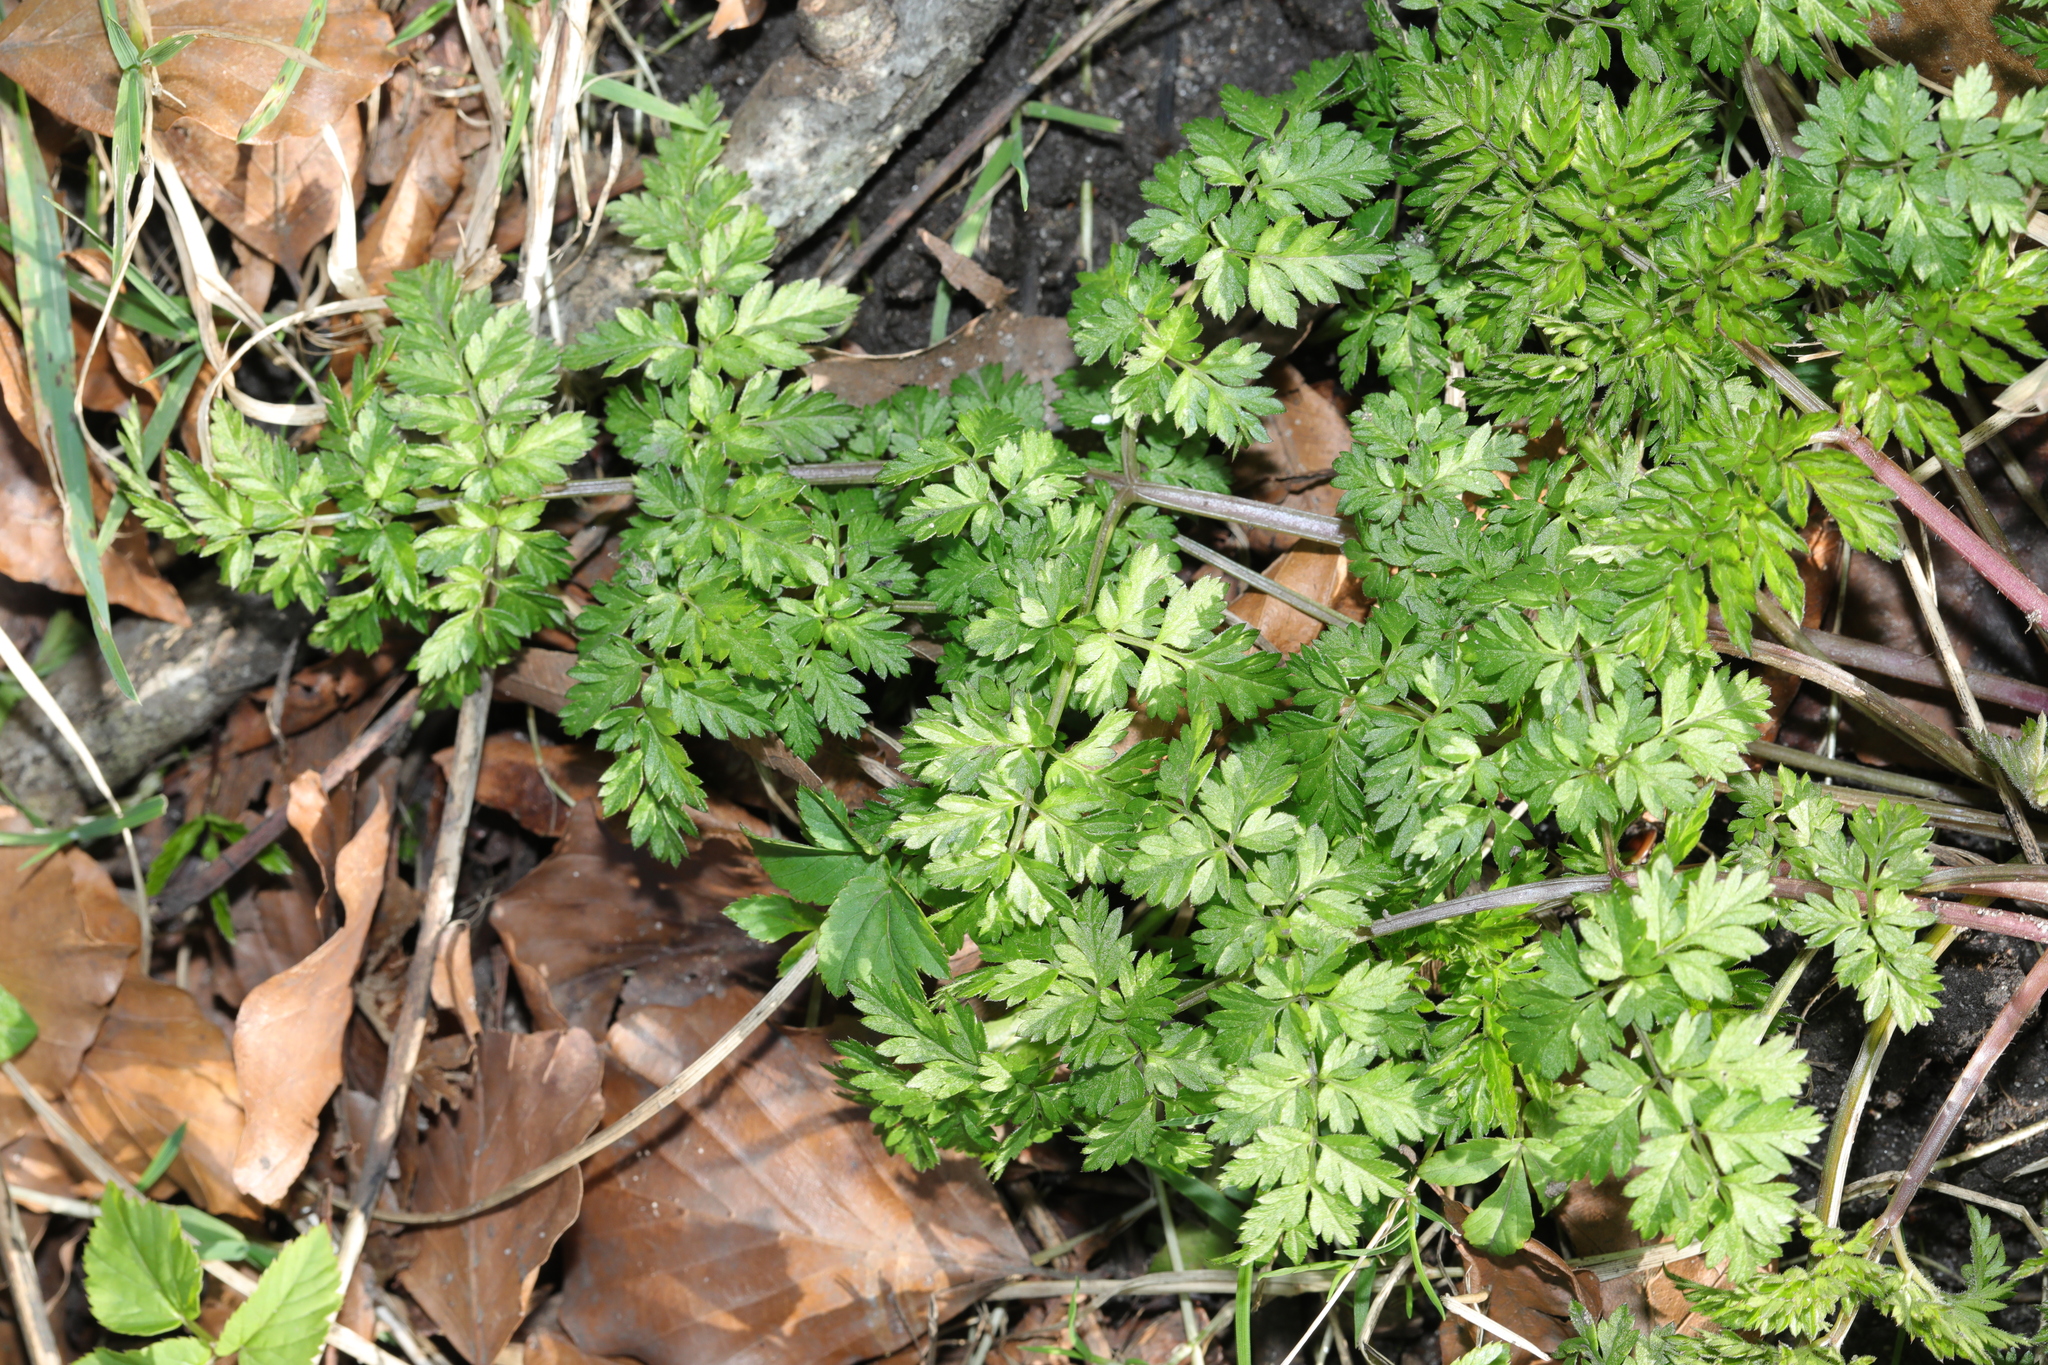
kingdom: Plantae
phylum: Tracheophyta
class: Magnoliopsida
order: Apiales
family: Apiaceae
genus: Anthriscus
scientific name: Anthriscus sylvestris
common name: Cow parsley
